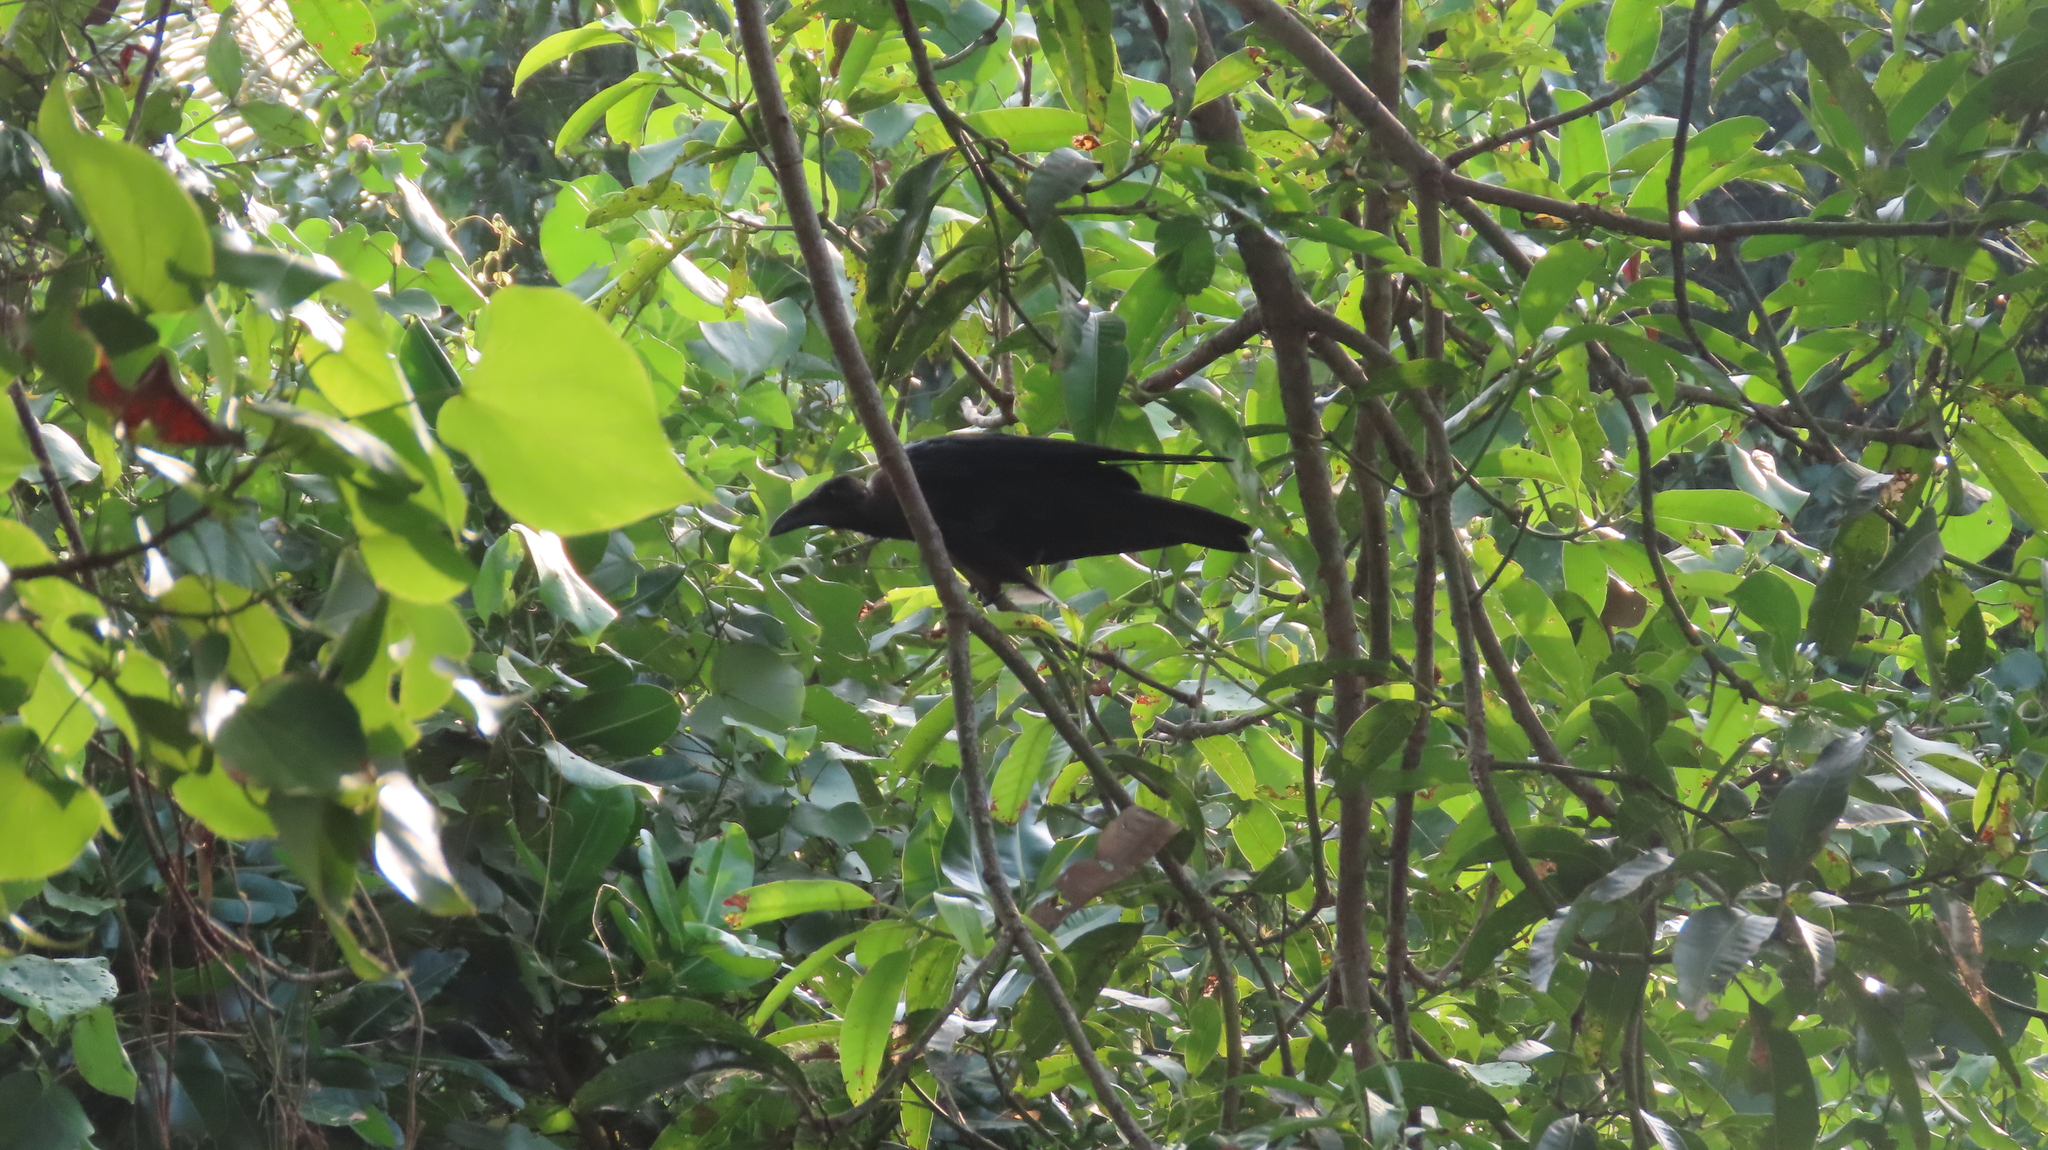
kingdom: Animalia
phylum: Chordata
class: Aves
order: Passeriformes
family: Corvidae
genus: Corvus
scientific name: Corvus splendens
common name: House crow
